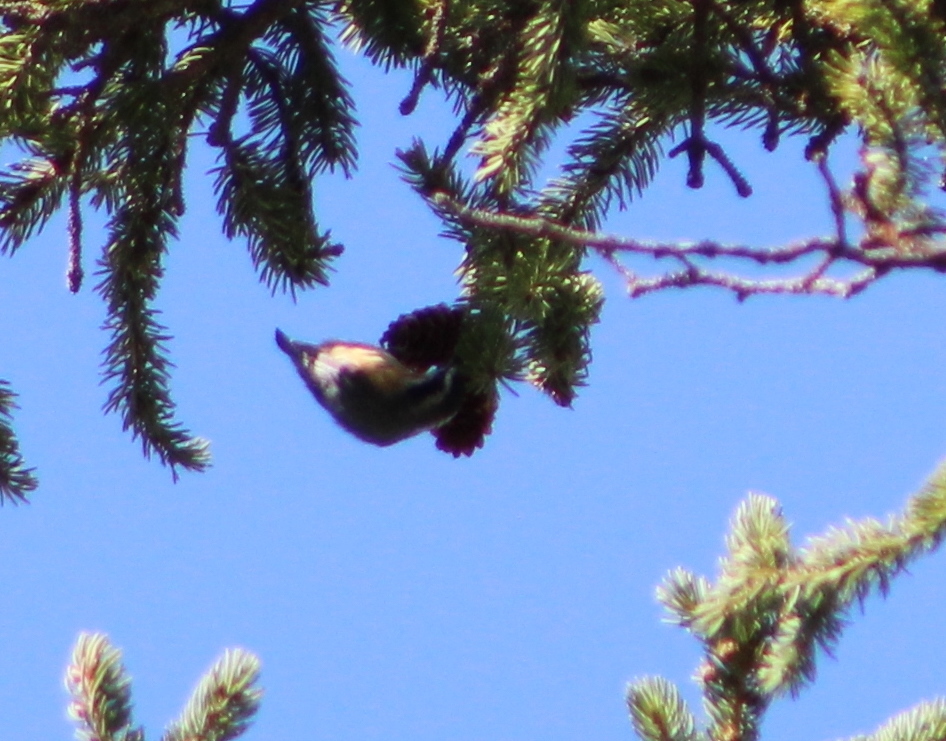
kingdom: Animalia
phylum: Chordata
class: Aves
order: Passeriformes
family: Sittidae
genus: Sitta
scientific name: Sitta canadensis
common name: Red-breasted nuthatch
